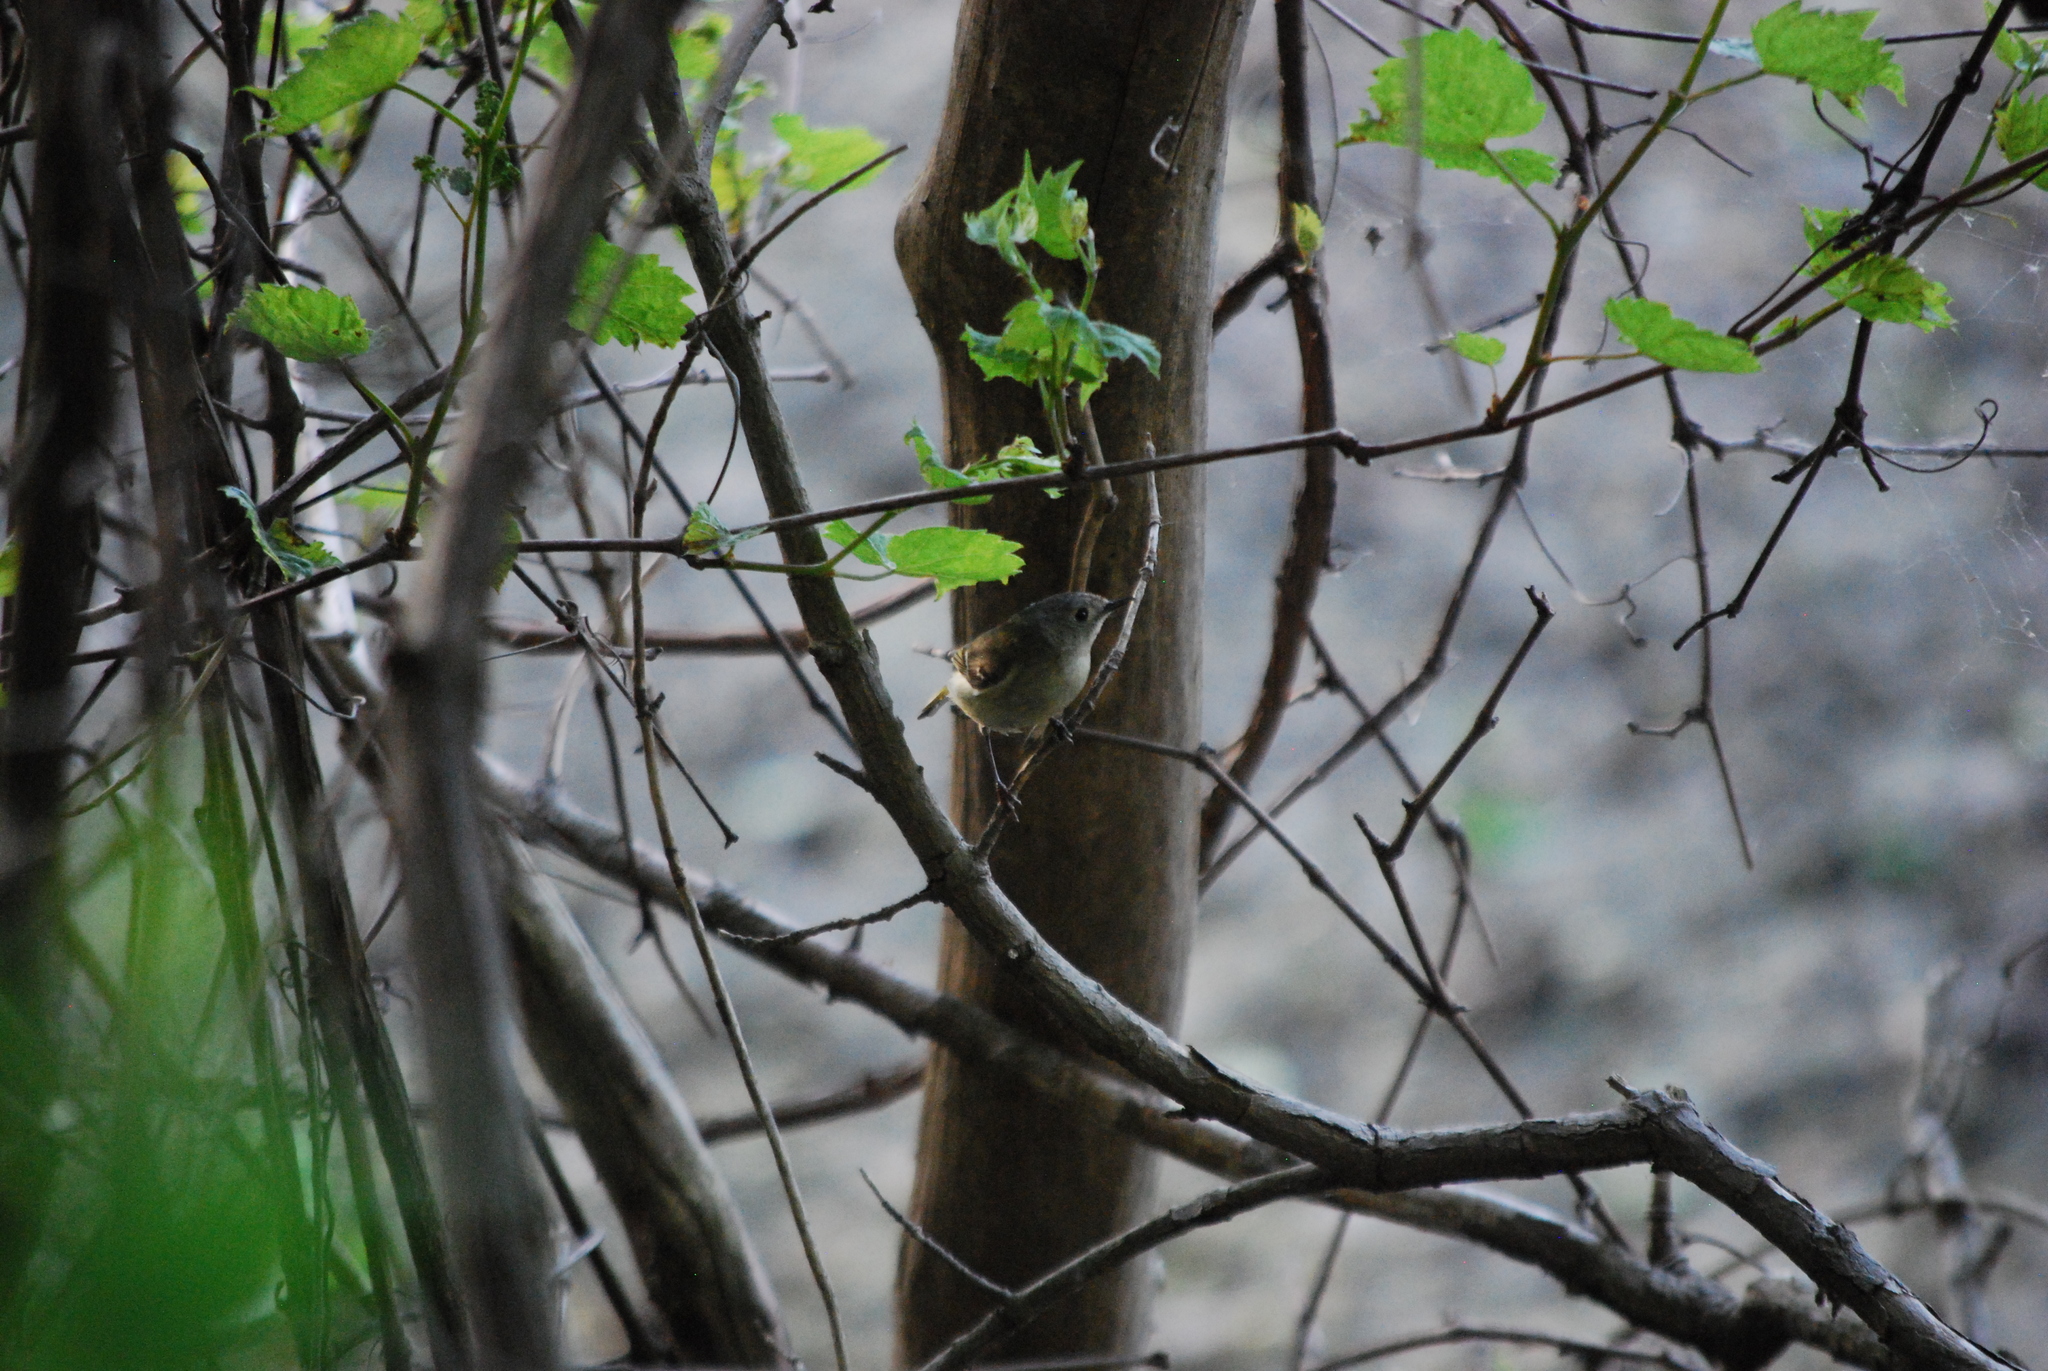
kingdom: Animalia
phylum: Chordata
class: Aves
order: Passeriformes
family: Regulidae
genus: Regulus
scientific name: Regulus calendula
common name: Ruby-crowned kinglet
